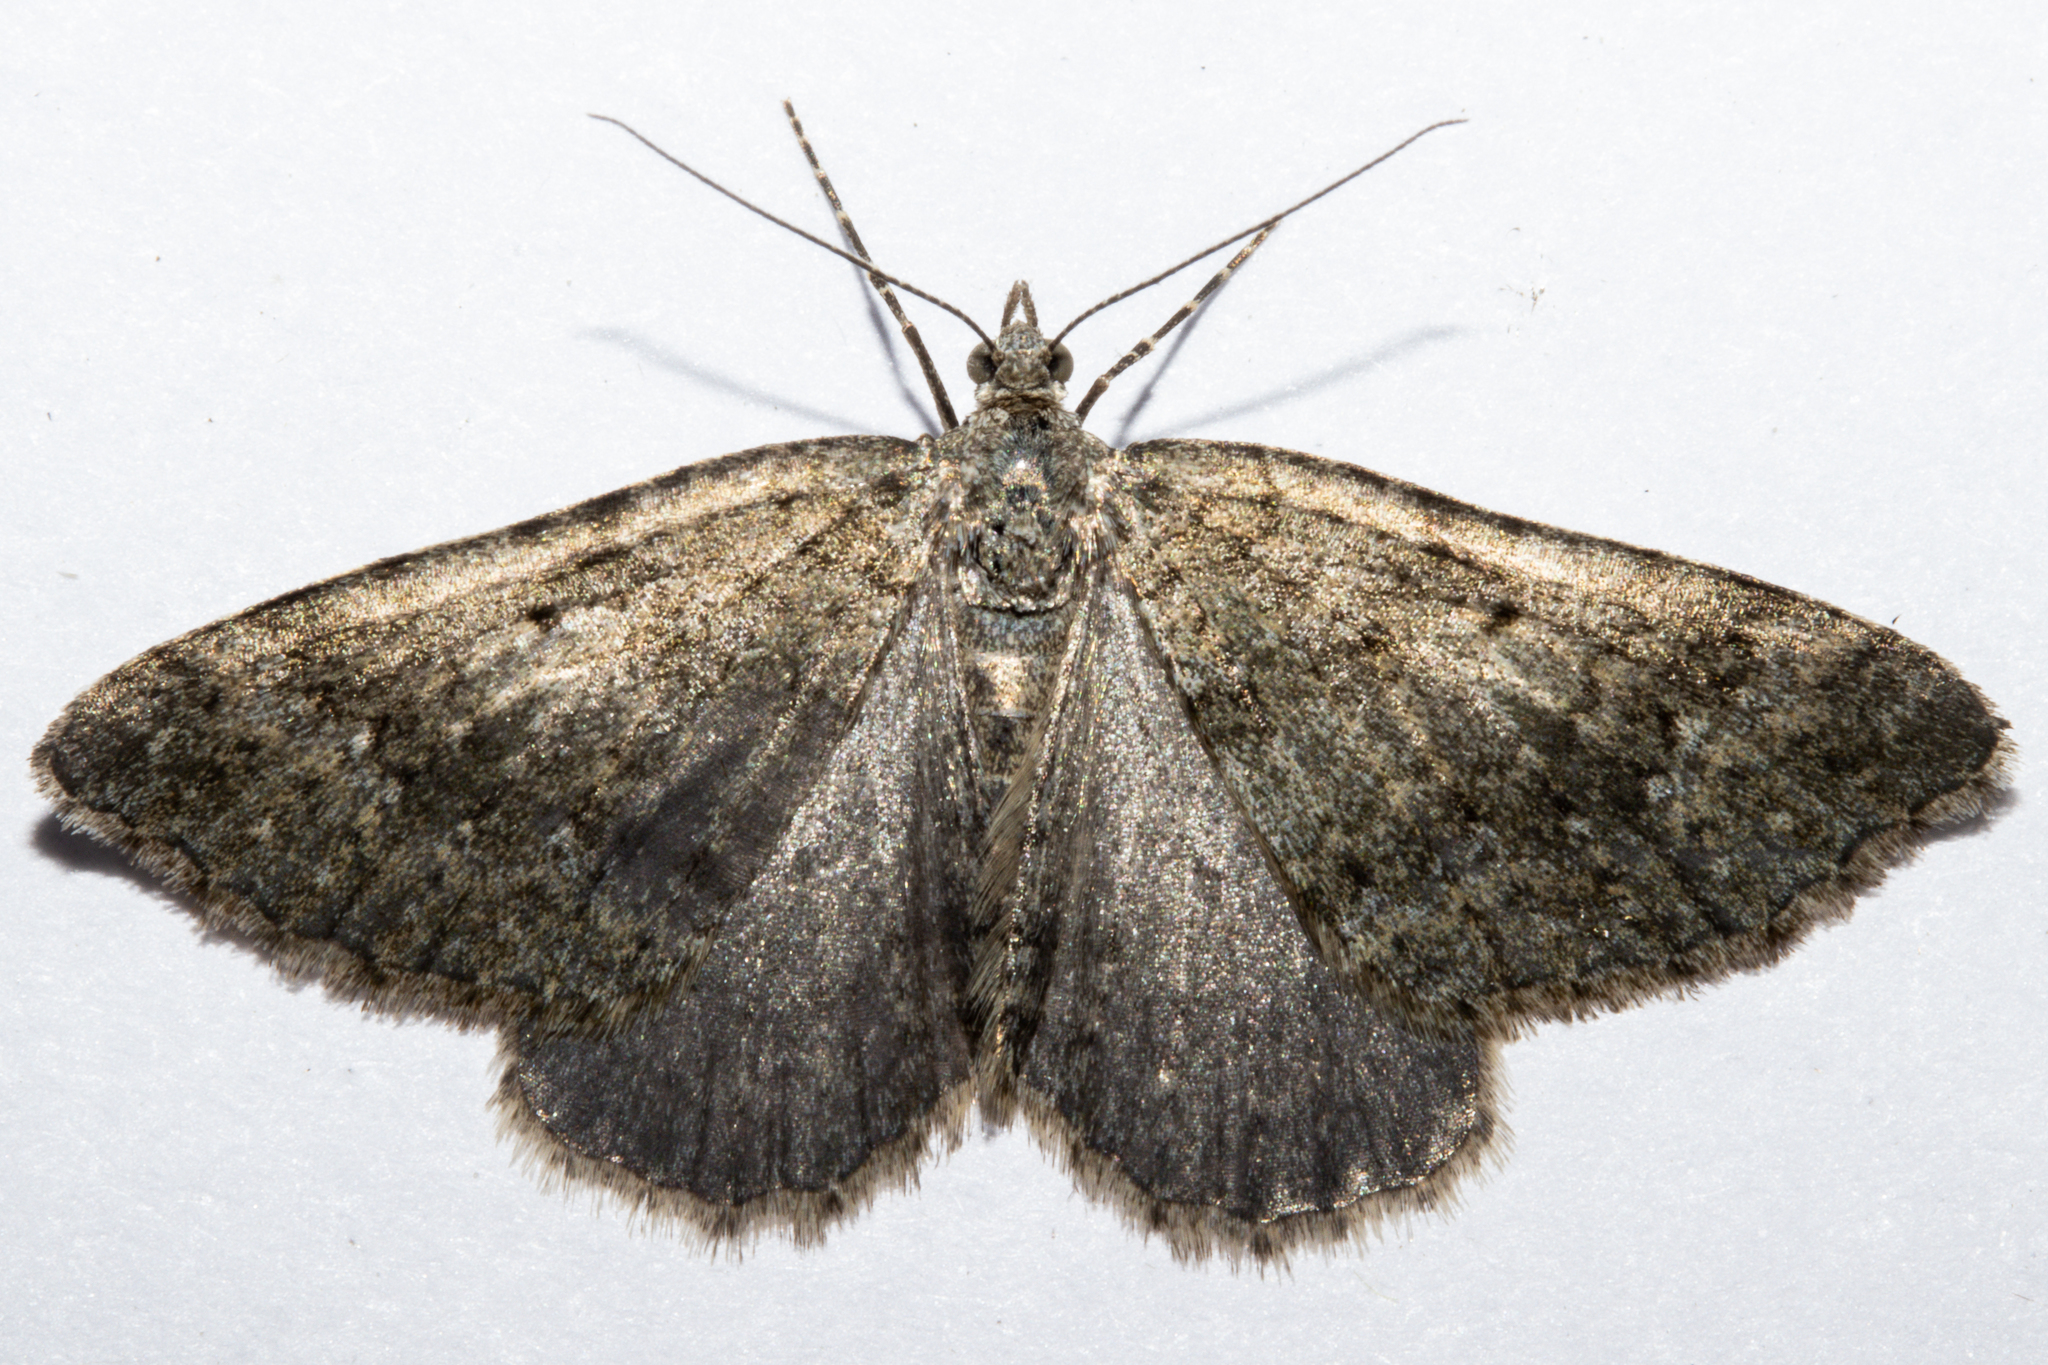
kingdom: Animalia
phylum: Arthropoda
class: Insecta
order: Lepidoptera
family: Geometridae
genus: Helastia
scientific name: Helastia corcularia
